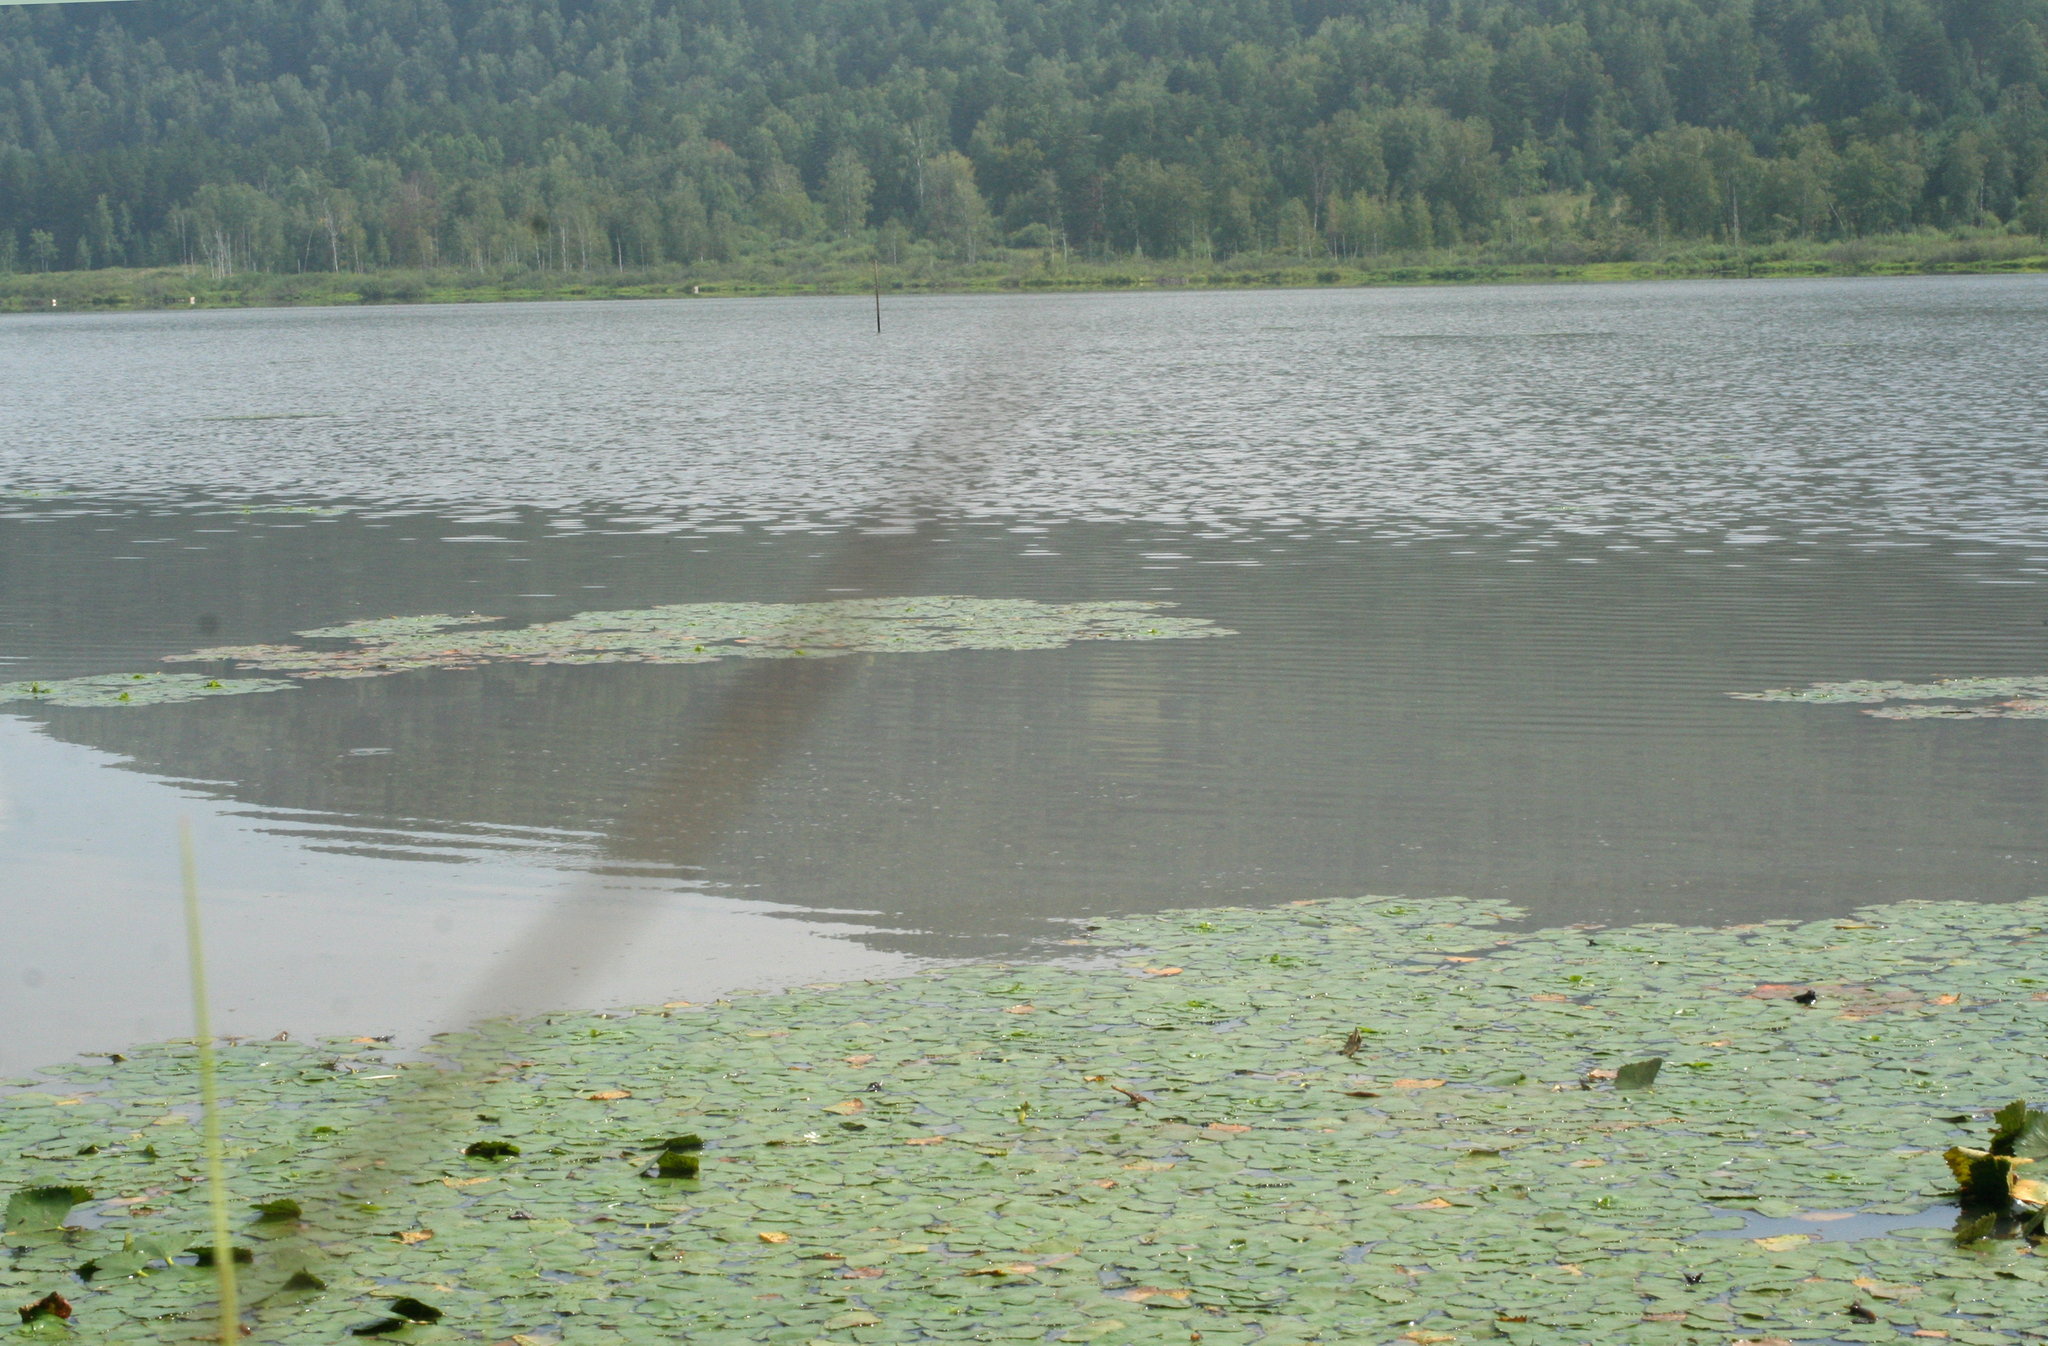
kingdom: Plantae
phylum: Tracheophyta
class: Magnoliopsida
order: Myrtales
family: Lythraceae
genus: Trapa
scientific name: Trapa natans
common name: Water chestnut
